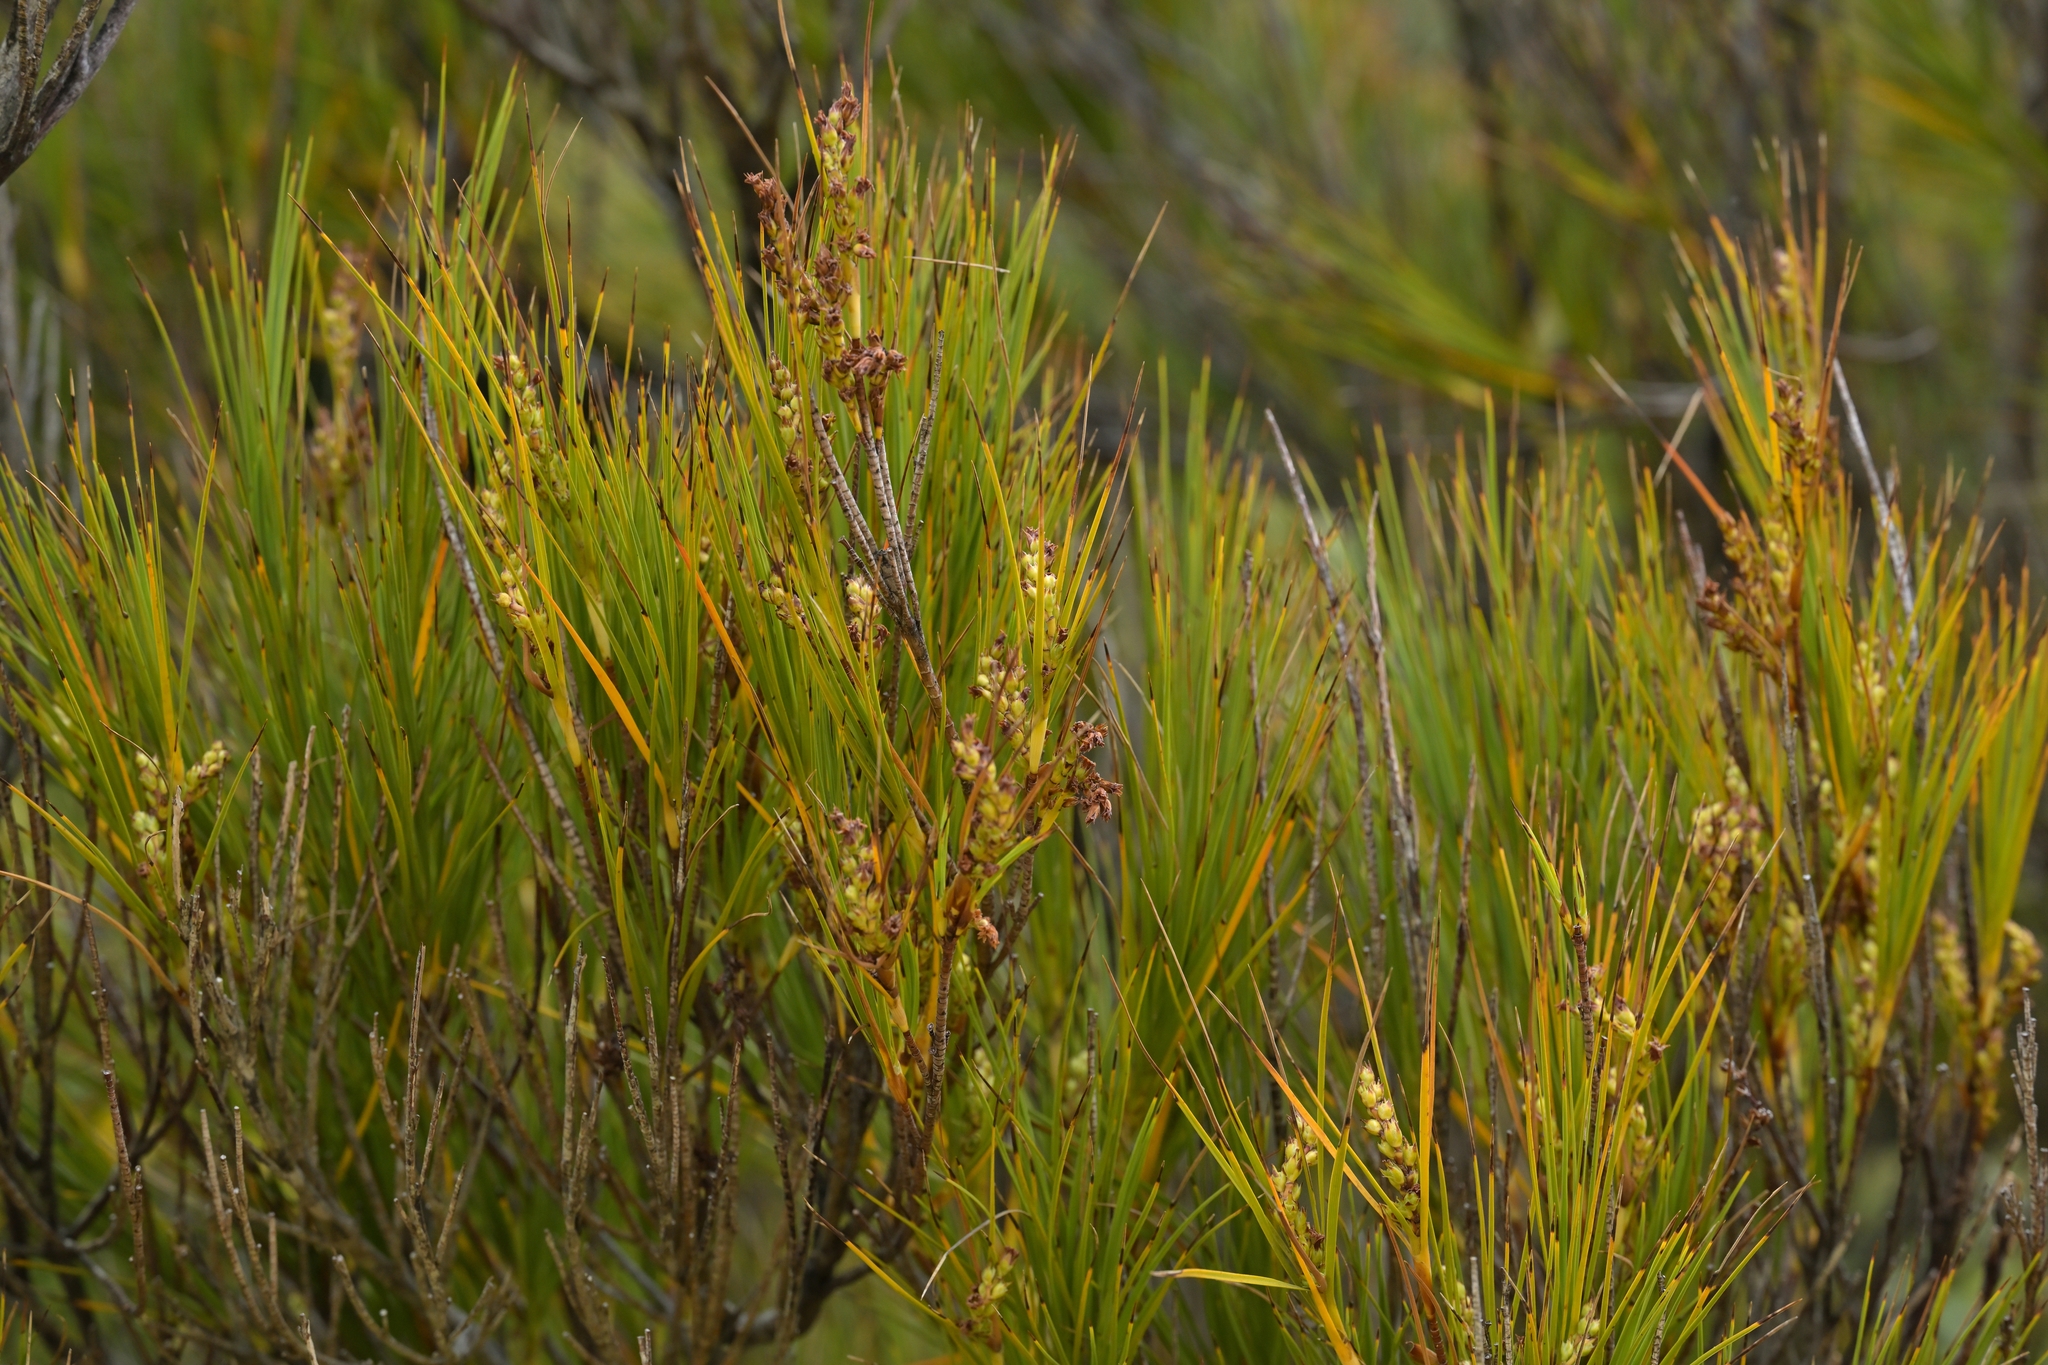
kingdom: Plantae
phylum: Tracheophyta
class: Magnoliopsida
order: Ericales
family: Ericaceae
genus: Dracophyllum
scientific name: Dracophyllum longifolium
